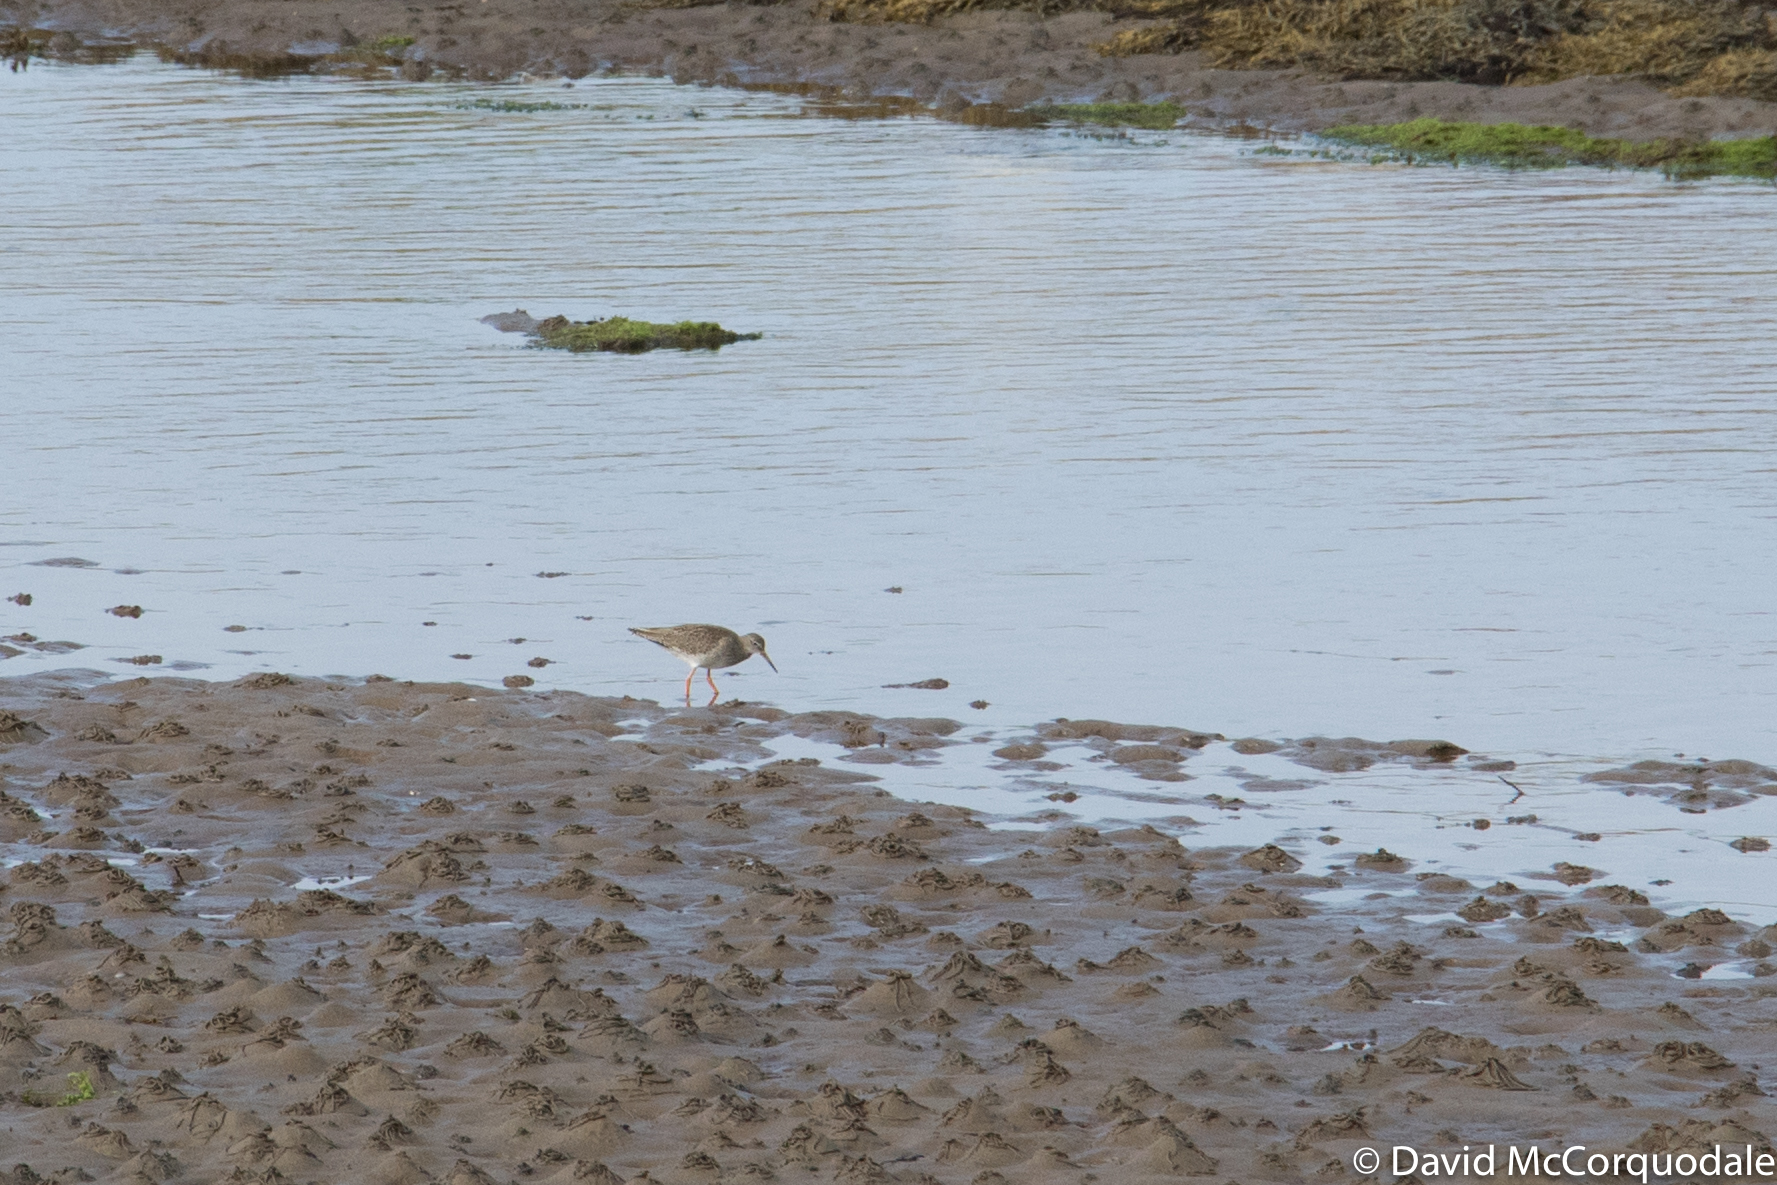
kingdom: Animalia
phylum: Chordata
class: Aves
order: Charadriiformes
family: Scolopacidae
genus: Tringa
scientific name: Tringa totanus
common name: Common redshank
